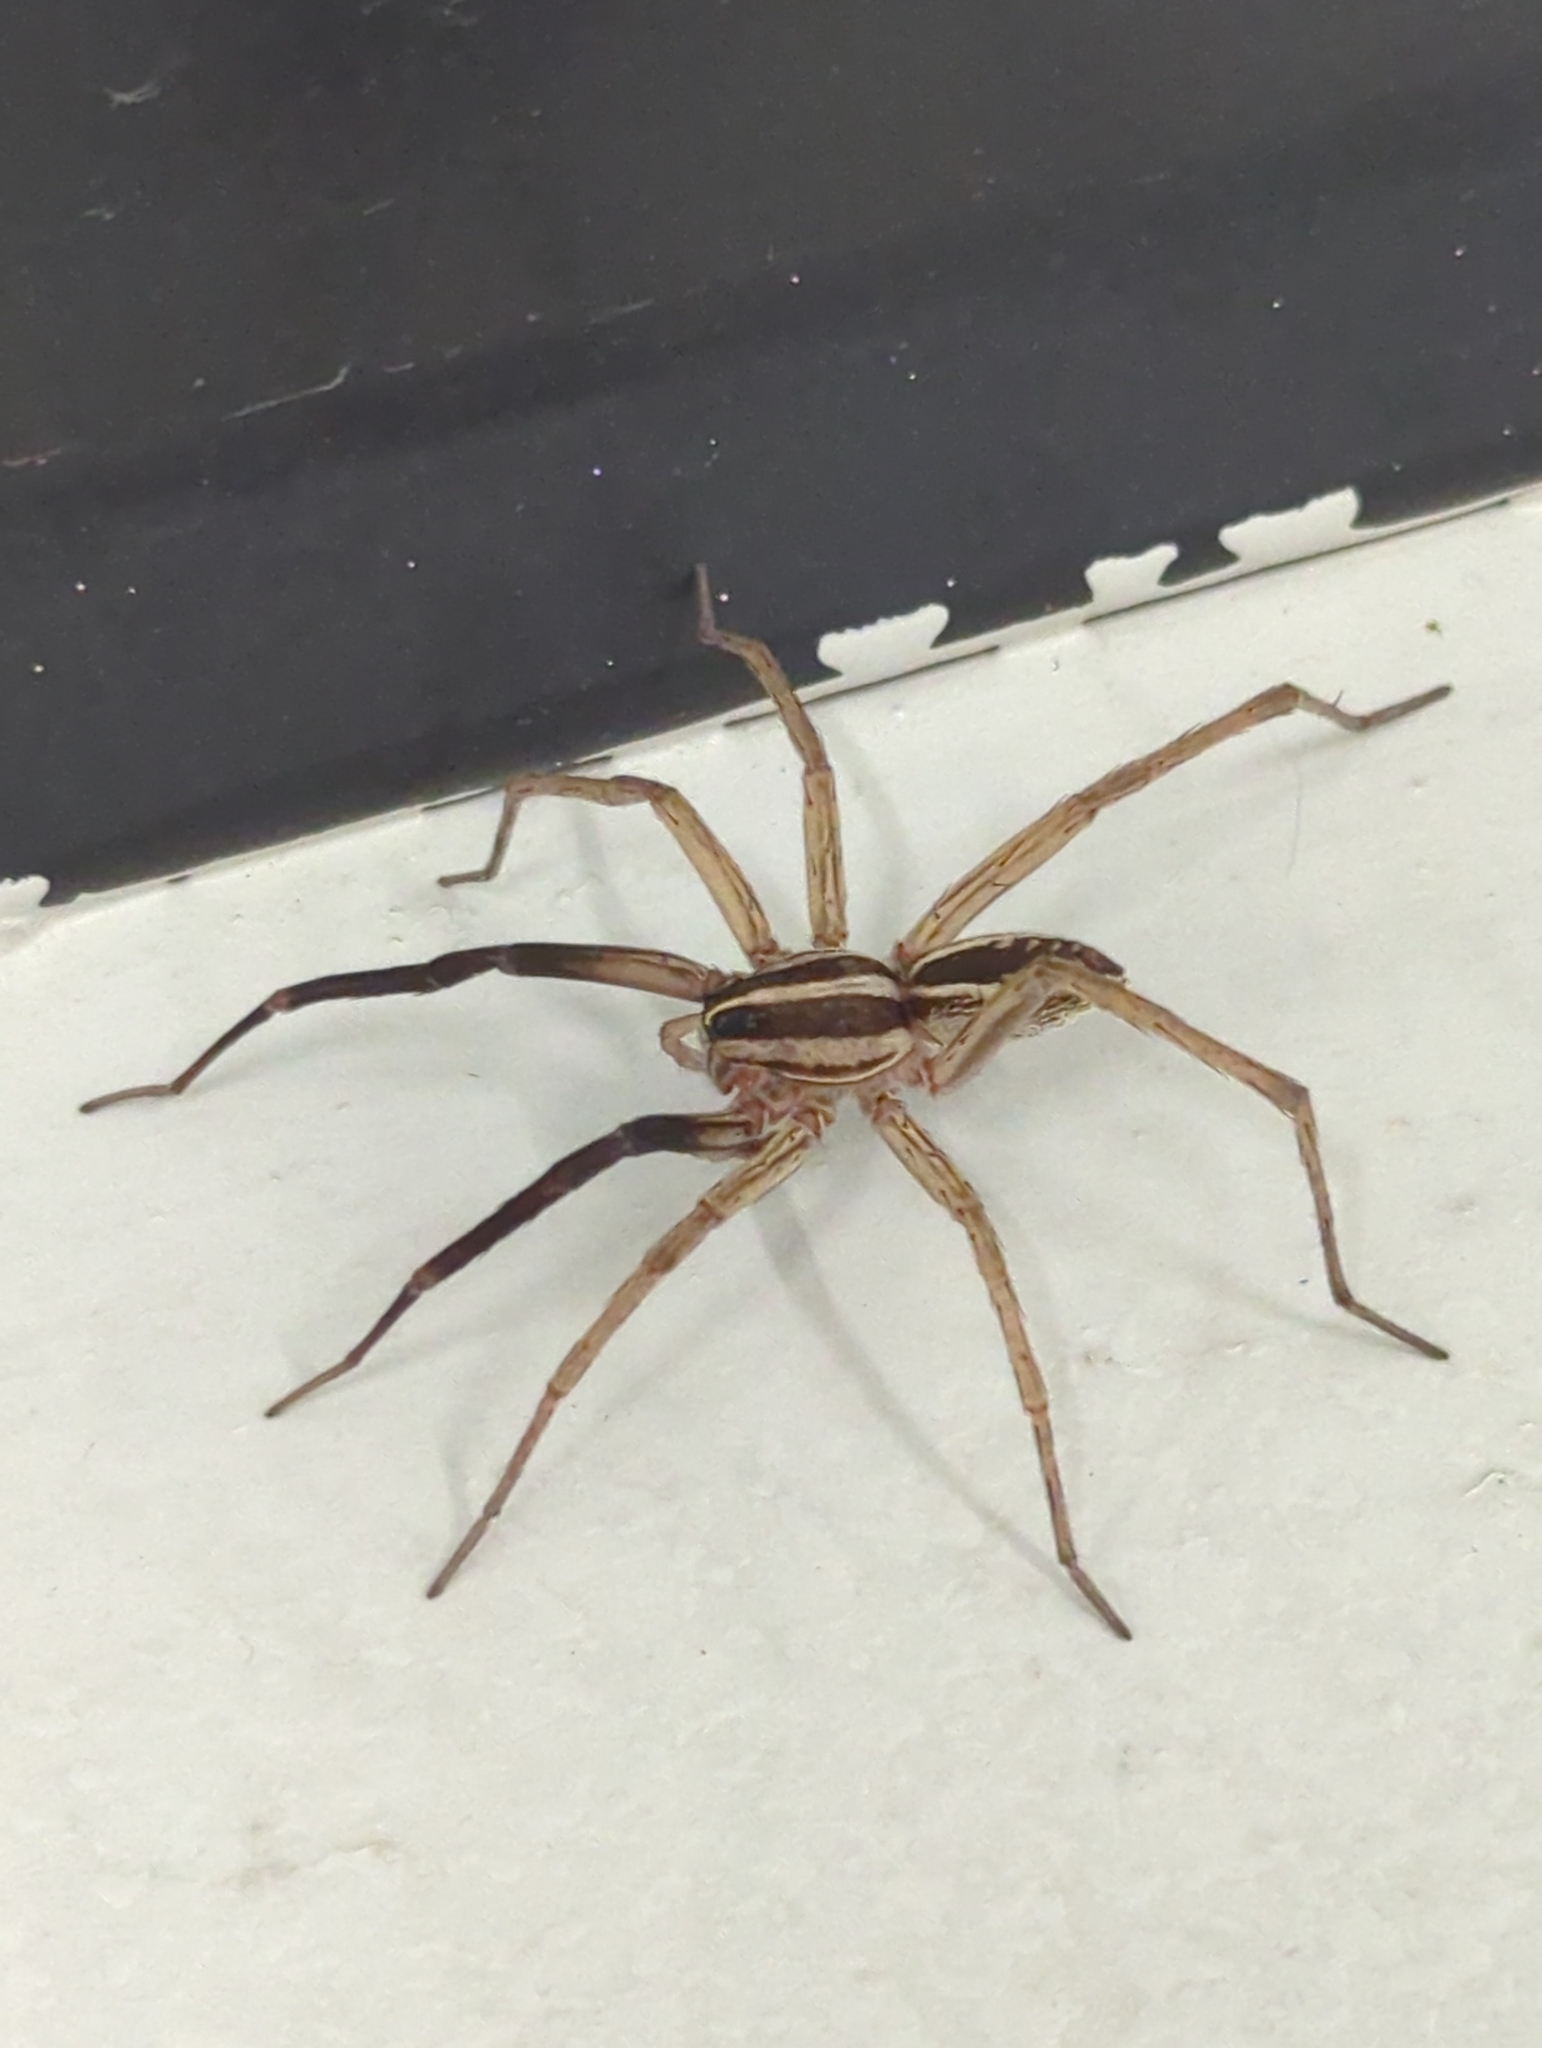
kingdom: Animalia
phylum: Arthropoda
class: Arachnida
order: Araneae
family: Lycosidae
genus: Rabidosa
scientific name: Rabidosa rabida
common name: Rabid wolf spider
